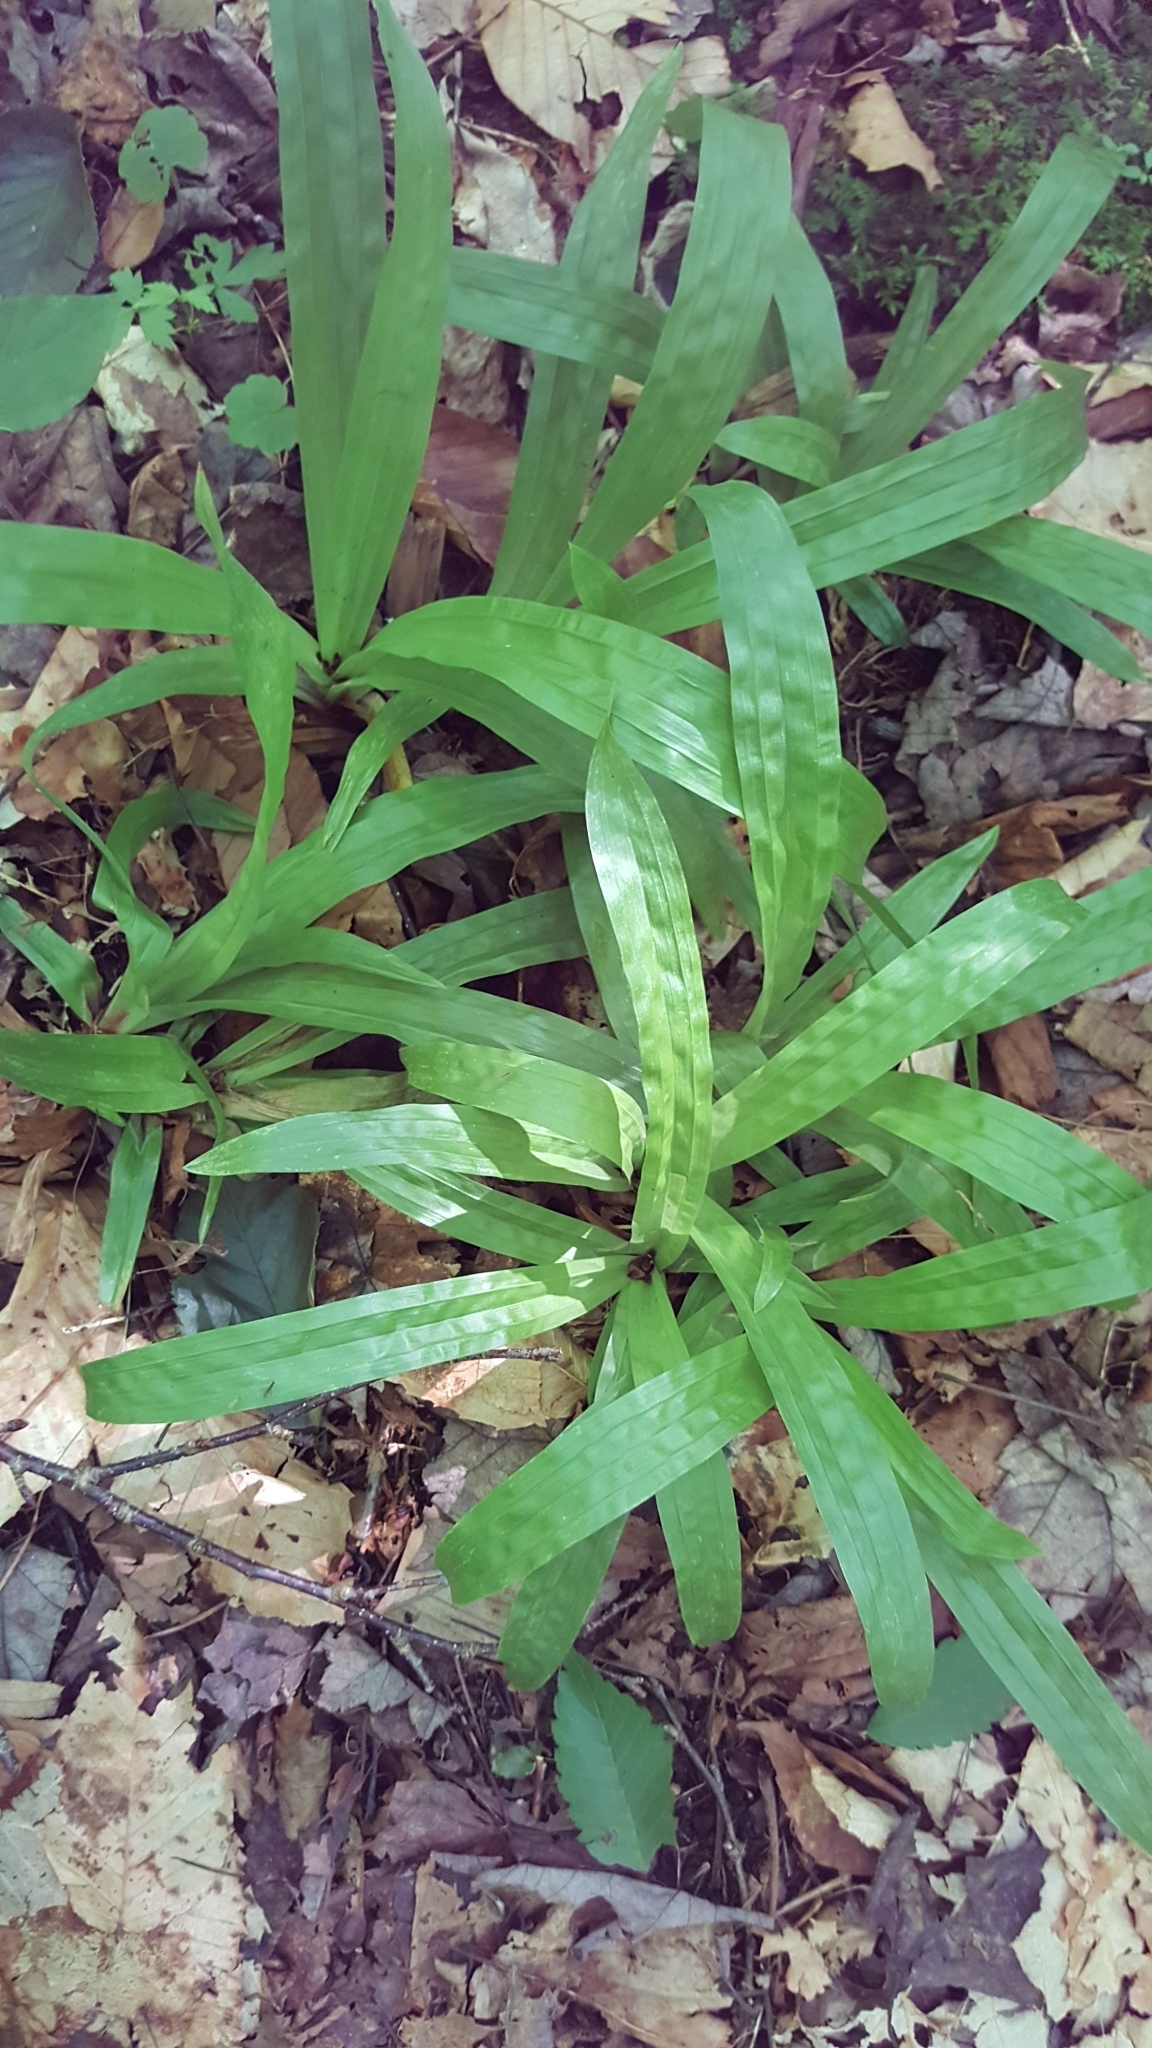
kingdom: Plantae
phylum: Tracheophyta
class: Liliopsida
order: Poales
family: Cyperaceae
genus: Carex
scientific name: Carex plantaginea
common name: Plantain-leaved sedge
